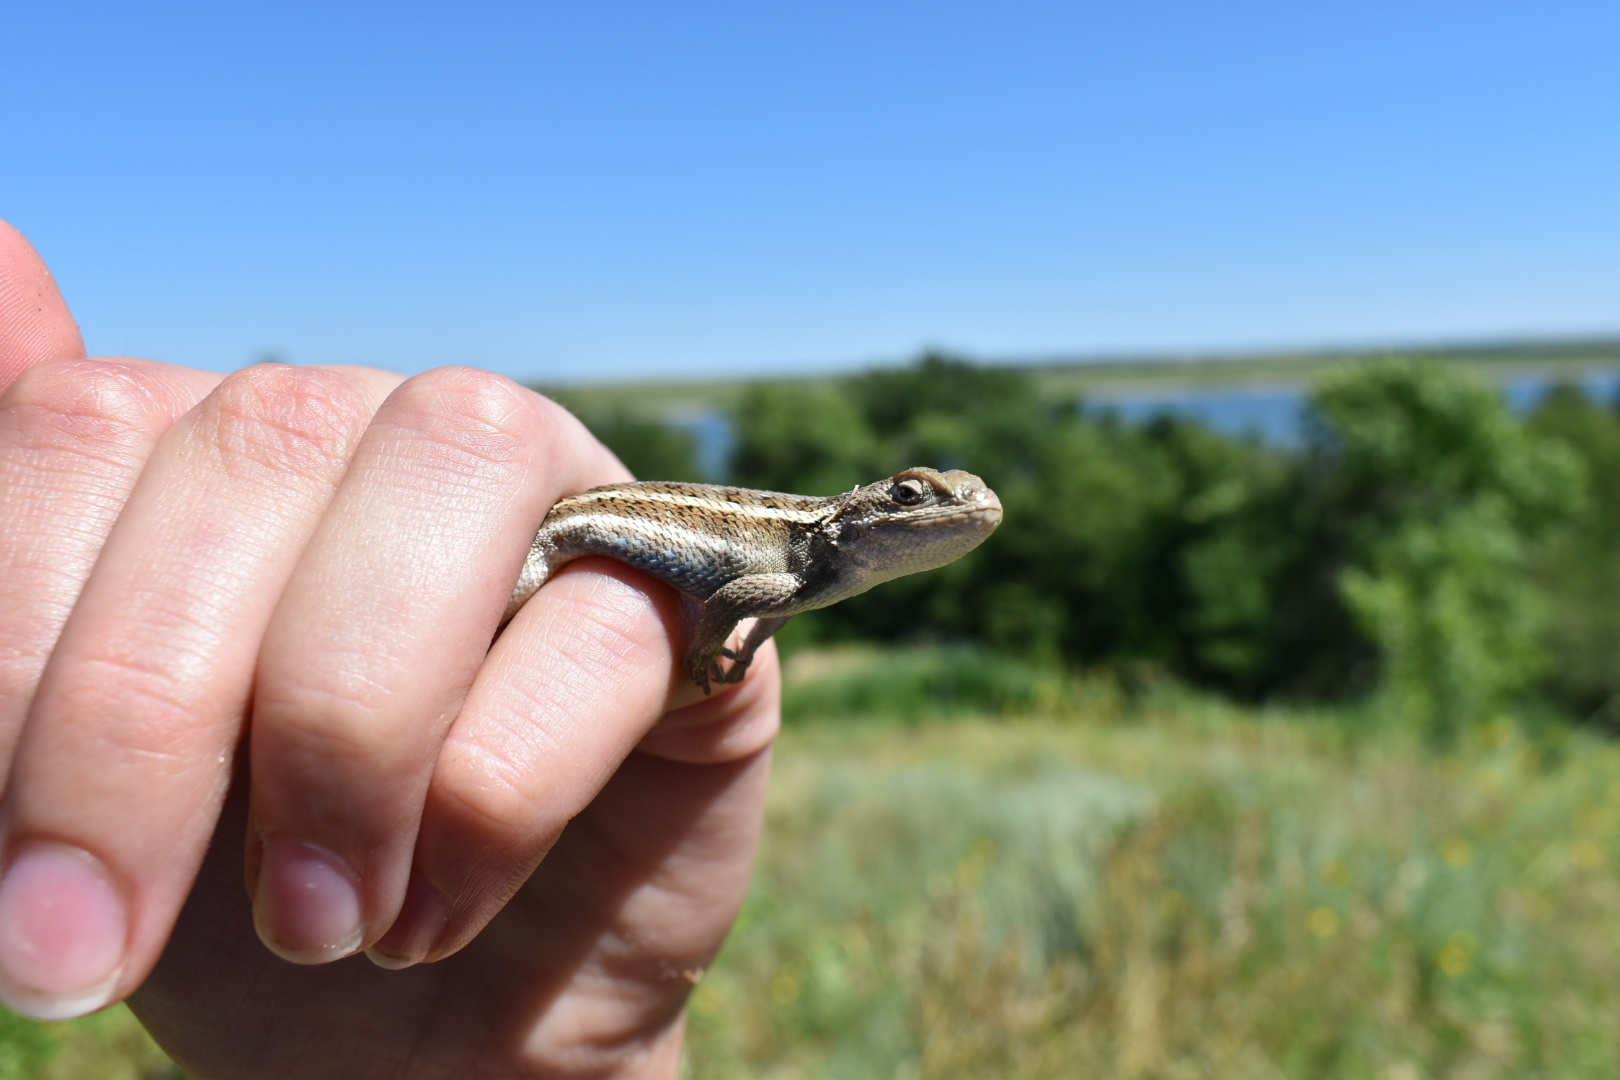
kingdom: Animalia
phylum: Chordata
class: Squamata
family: Phrynosomatidae
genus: Sceloporus
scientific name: Sceloporus consobrinus
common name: Southern prairie lizard
